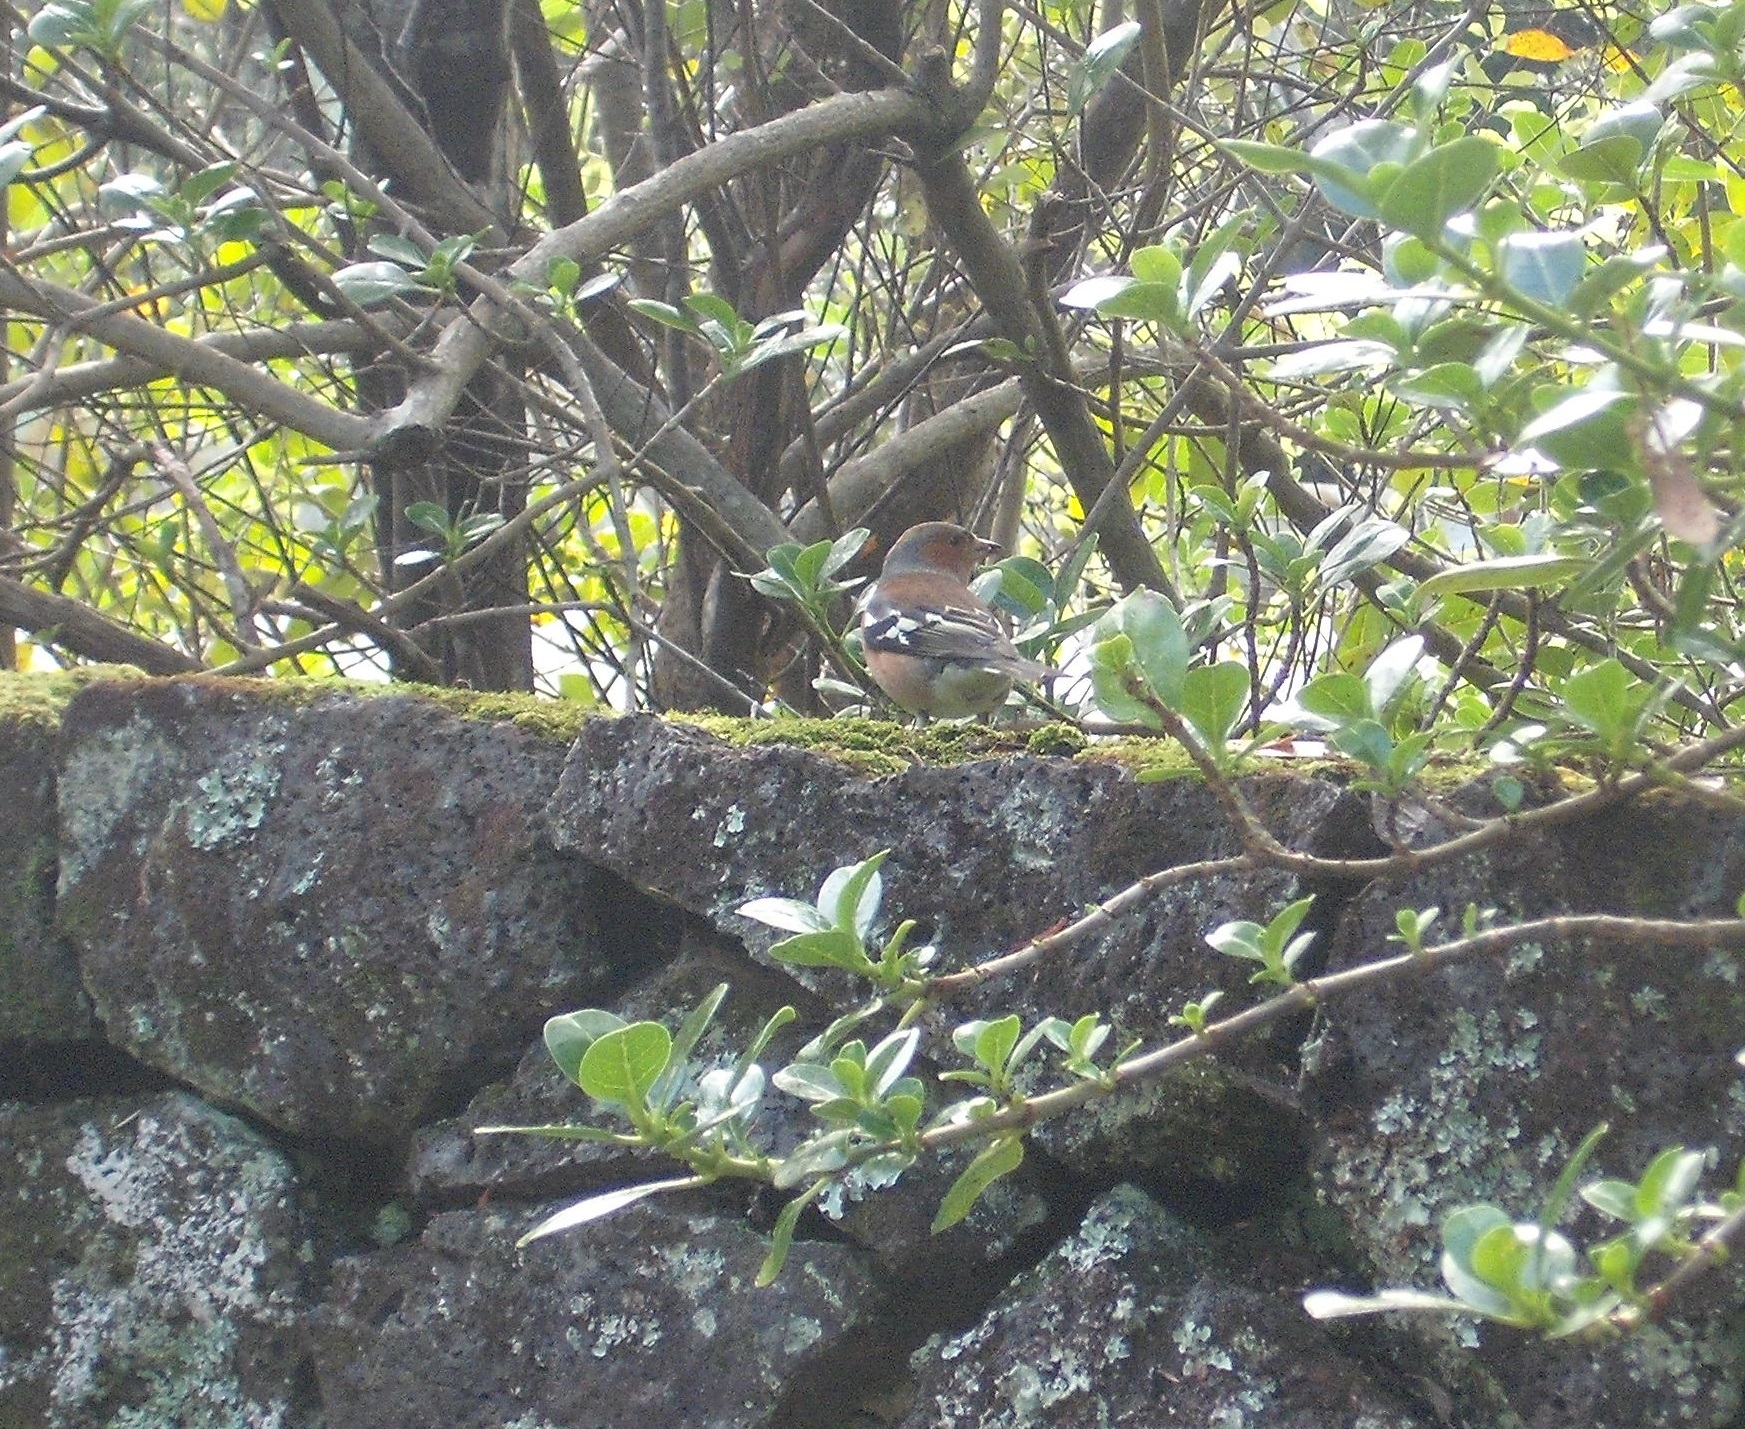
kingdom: Animalia
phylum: Chordata
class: Aves
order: Passeriformes
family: Fringillidae
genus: Fringilla
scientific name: Fringilla coelebs
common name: Common chaffinch
